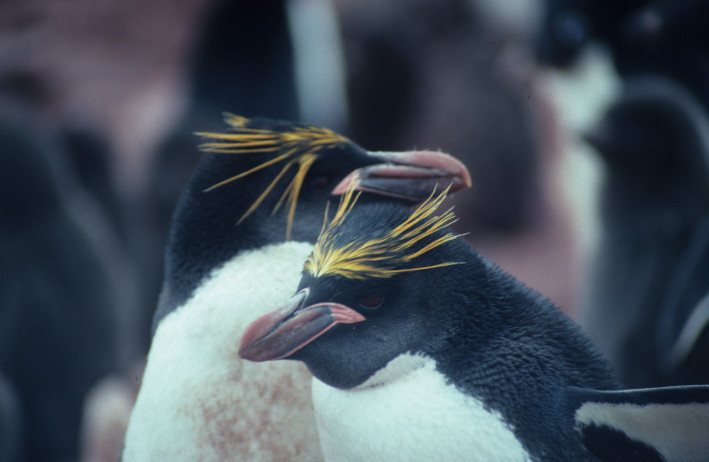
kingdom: Animalia
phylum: Chordata
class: Aves
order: Sphenisciformes
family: Spheniscidae
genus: Eudyptes
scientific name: Eudyptes chrysolophus
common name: Macaroni penguin
